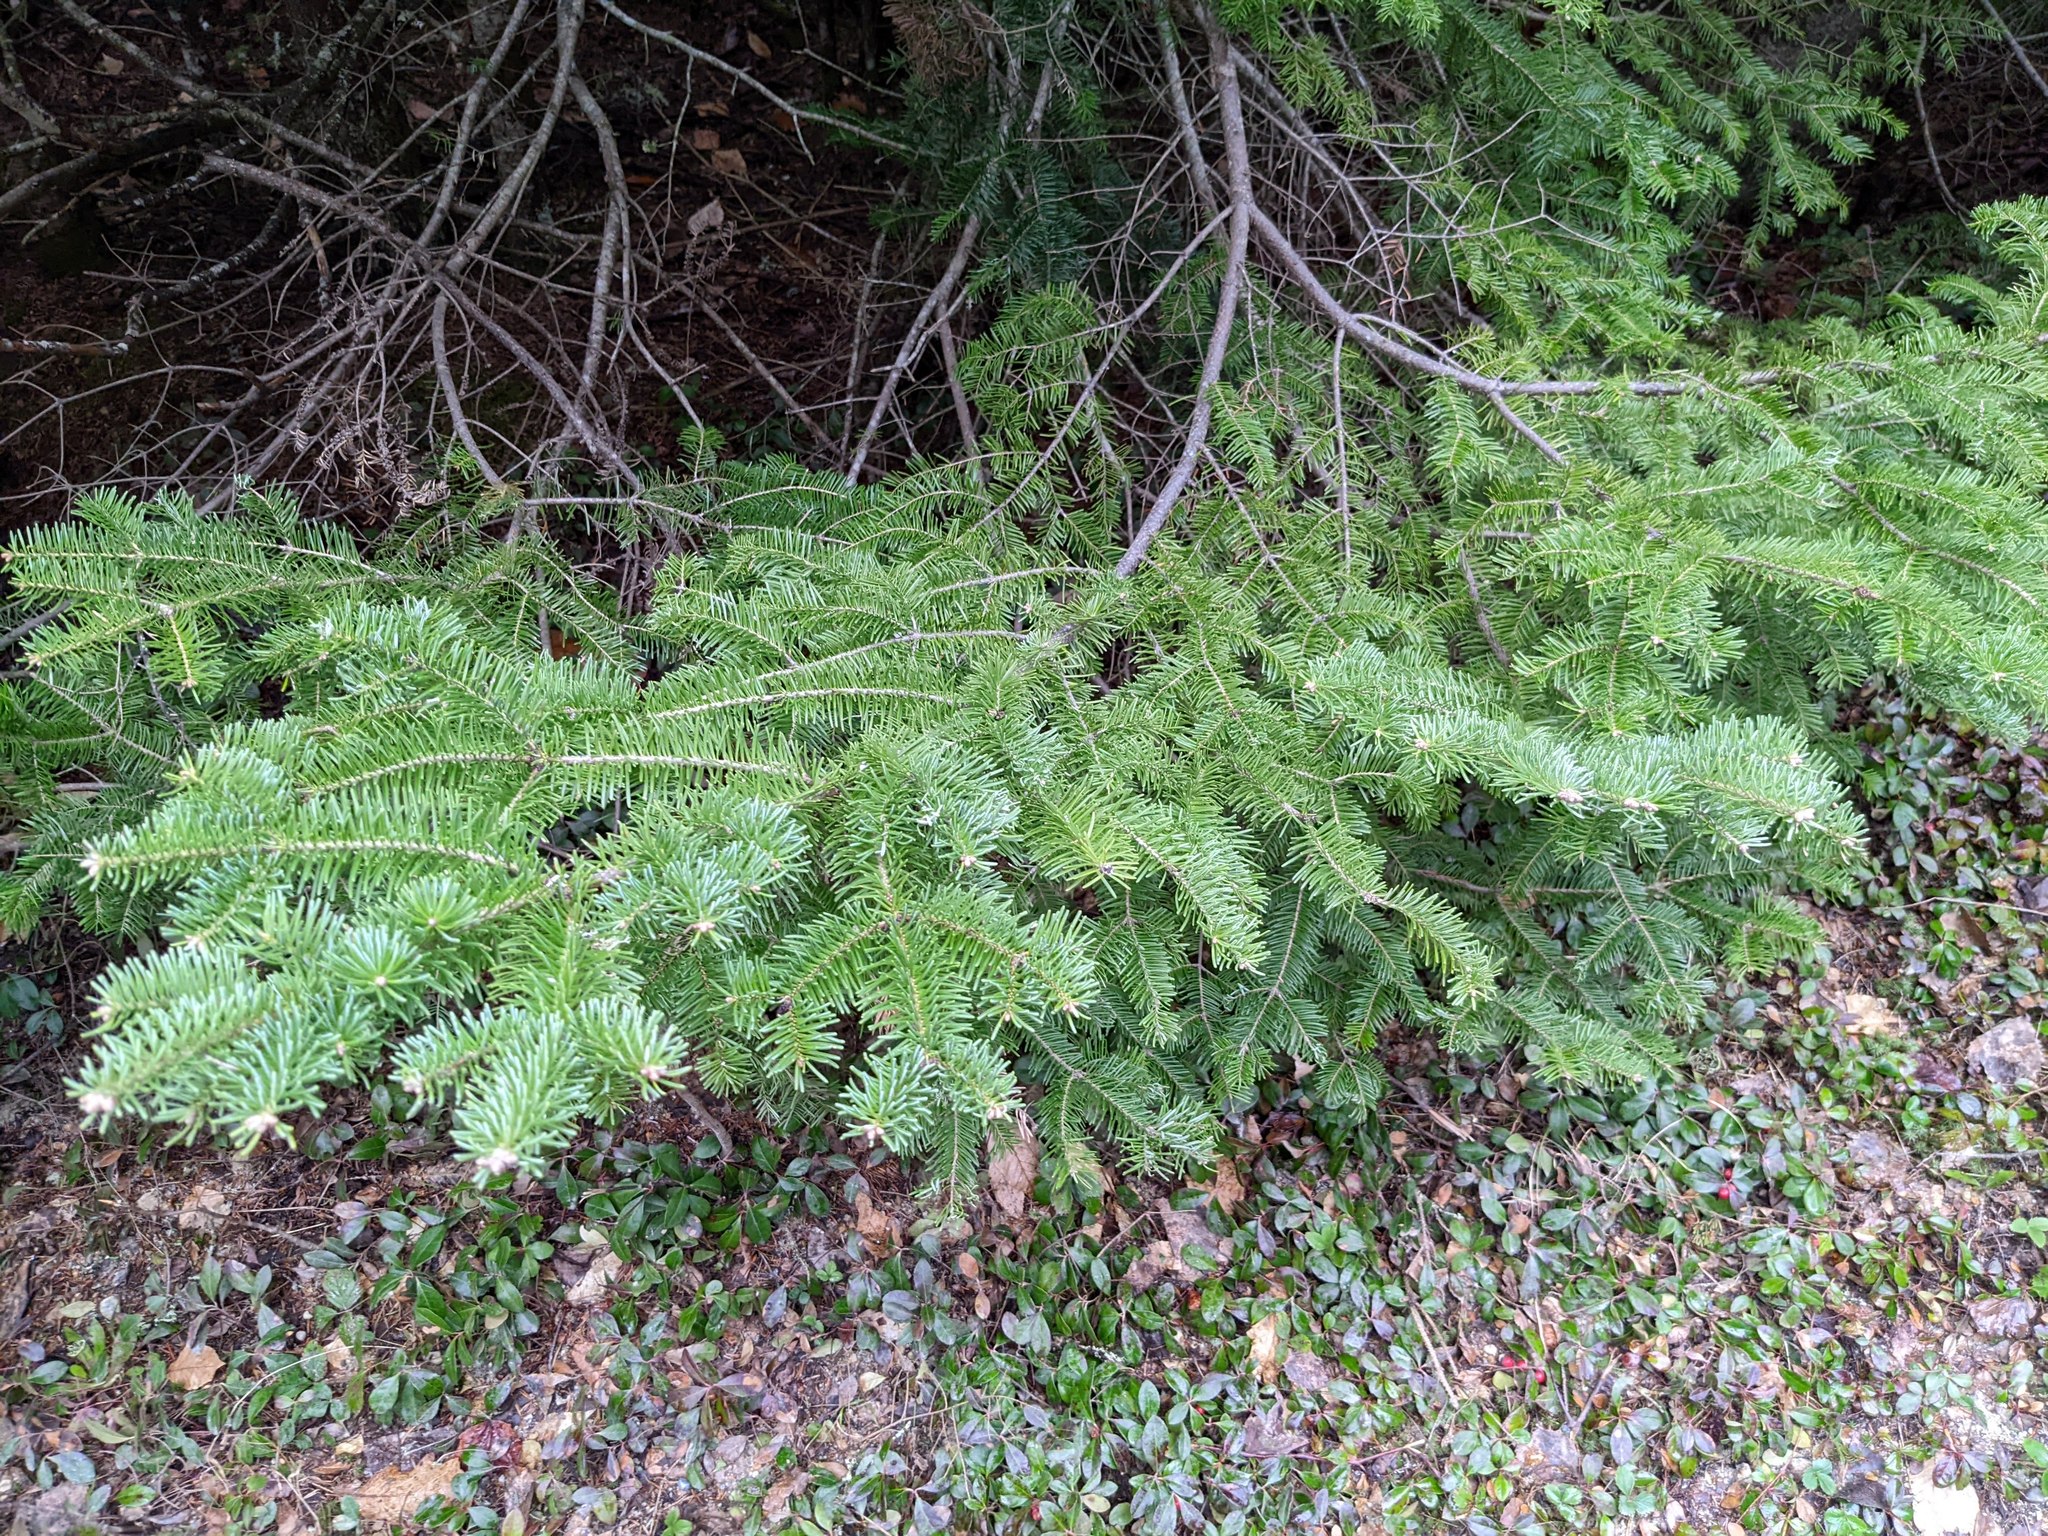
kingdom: Plantae
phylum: Tracheophyta
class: Pinopsida
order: Pinales
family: Pinaceae
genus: Abies
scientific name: Abies balsamea
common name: Balsam fir
